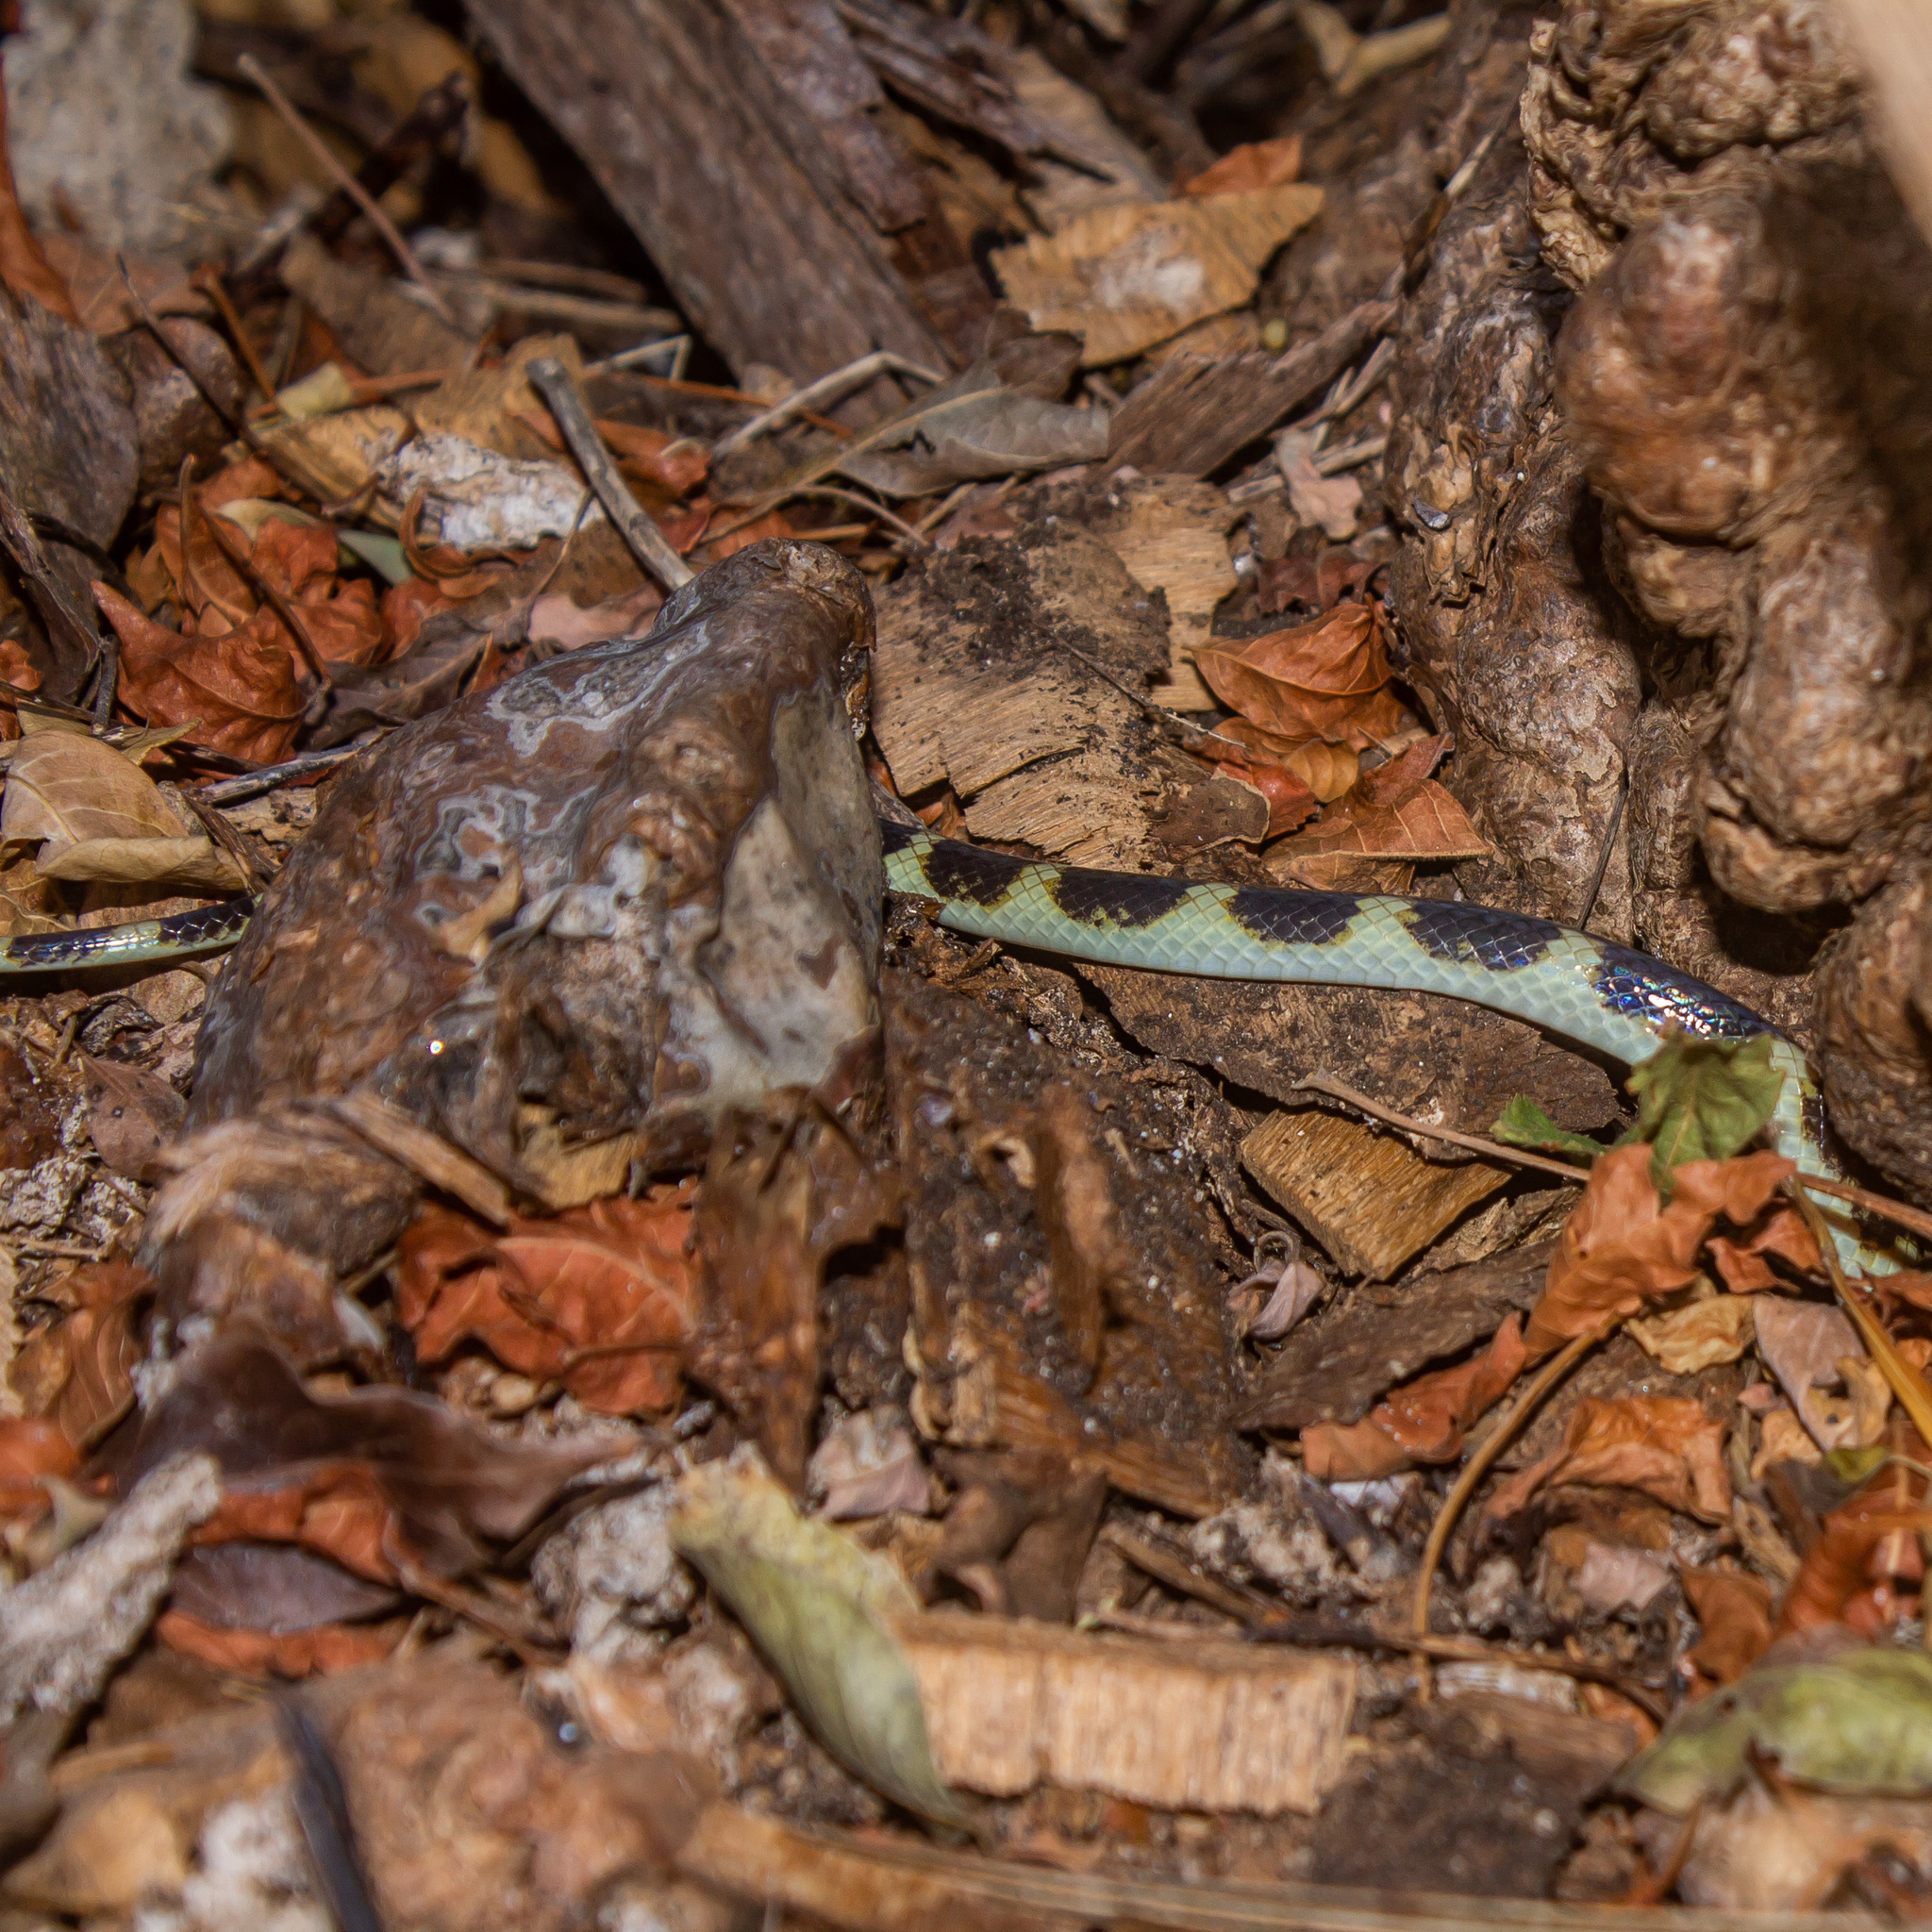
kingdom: Animalia
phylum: Chordata
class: Squamata
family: Colubridae
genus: Tantilla
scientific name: Tantilla semicincta
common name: Ringed centipede snake
